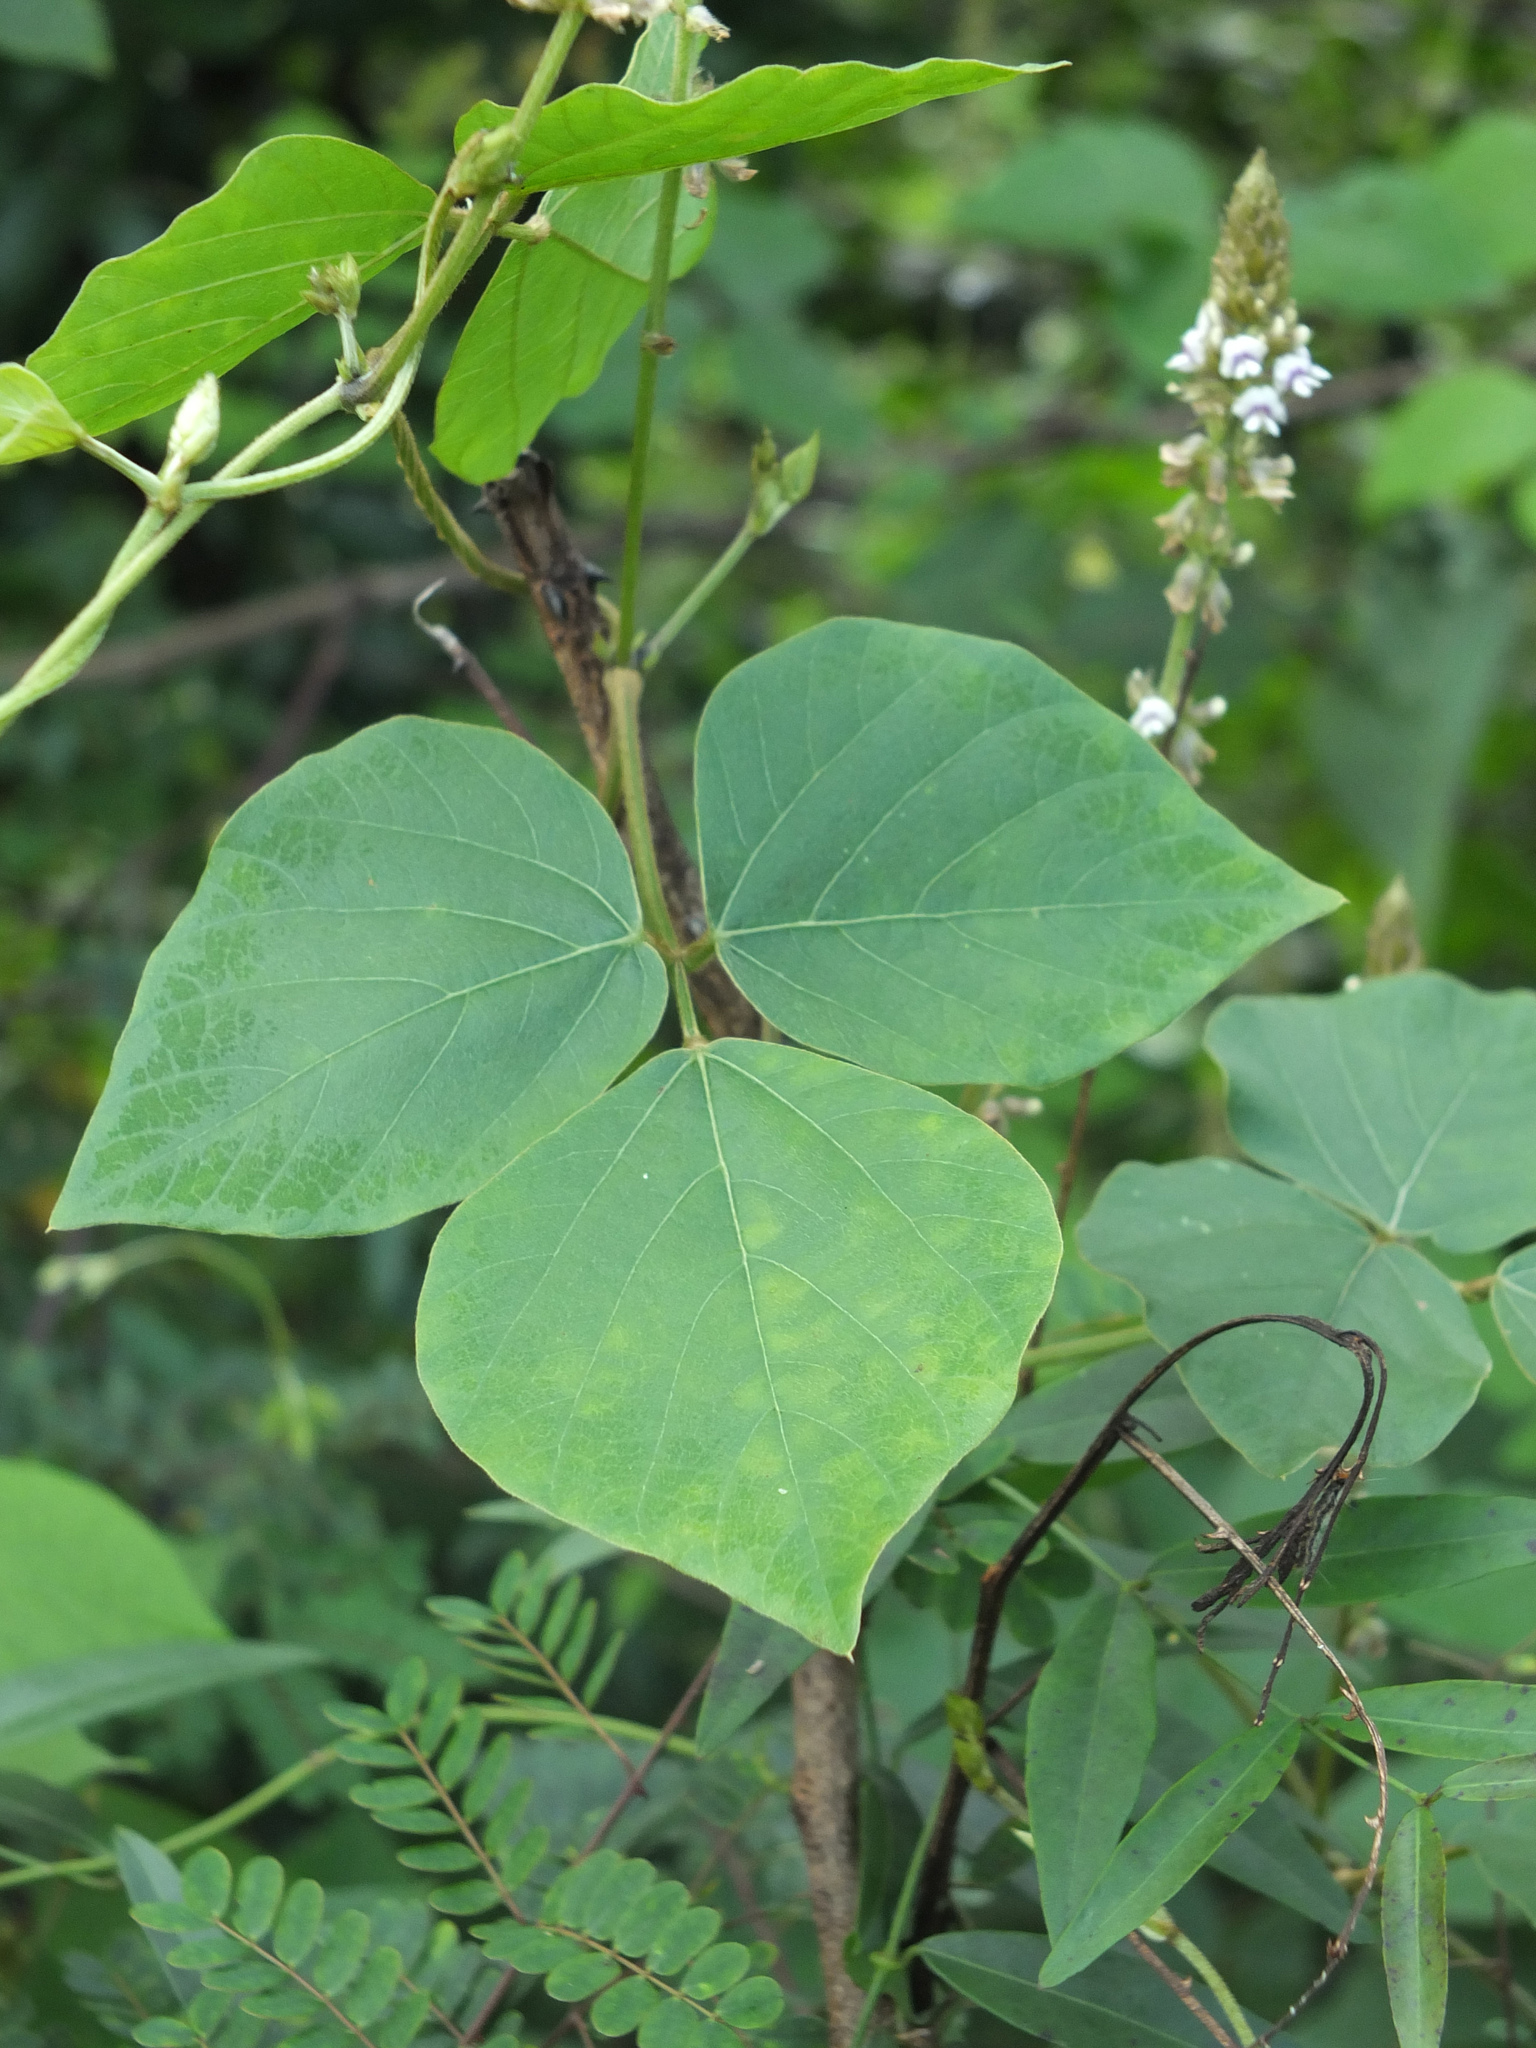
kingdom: Plantae
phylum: Tracheophyta
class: Magnoliopsida
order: Fabales
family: Fabaceae
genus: Neonotonia
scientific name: Neonotonia wightii
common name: Perennial soybean
